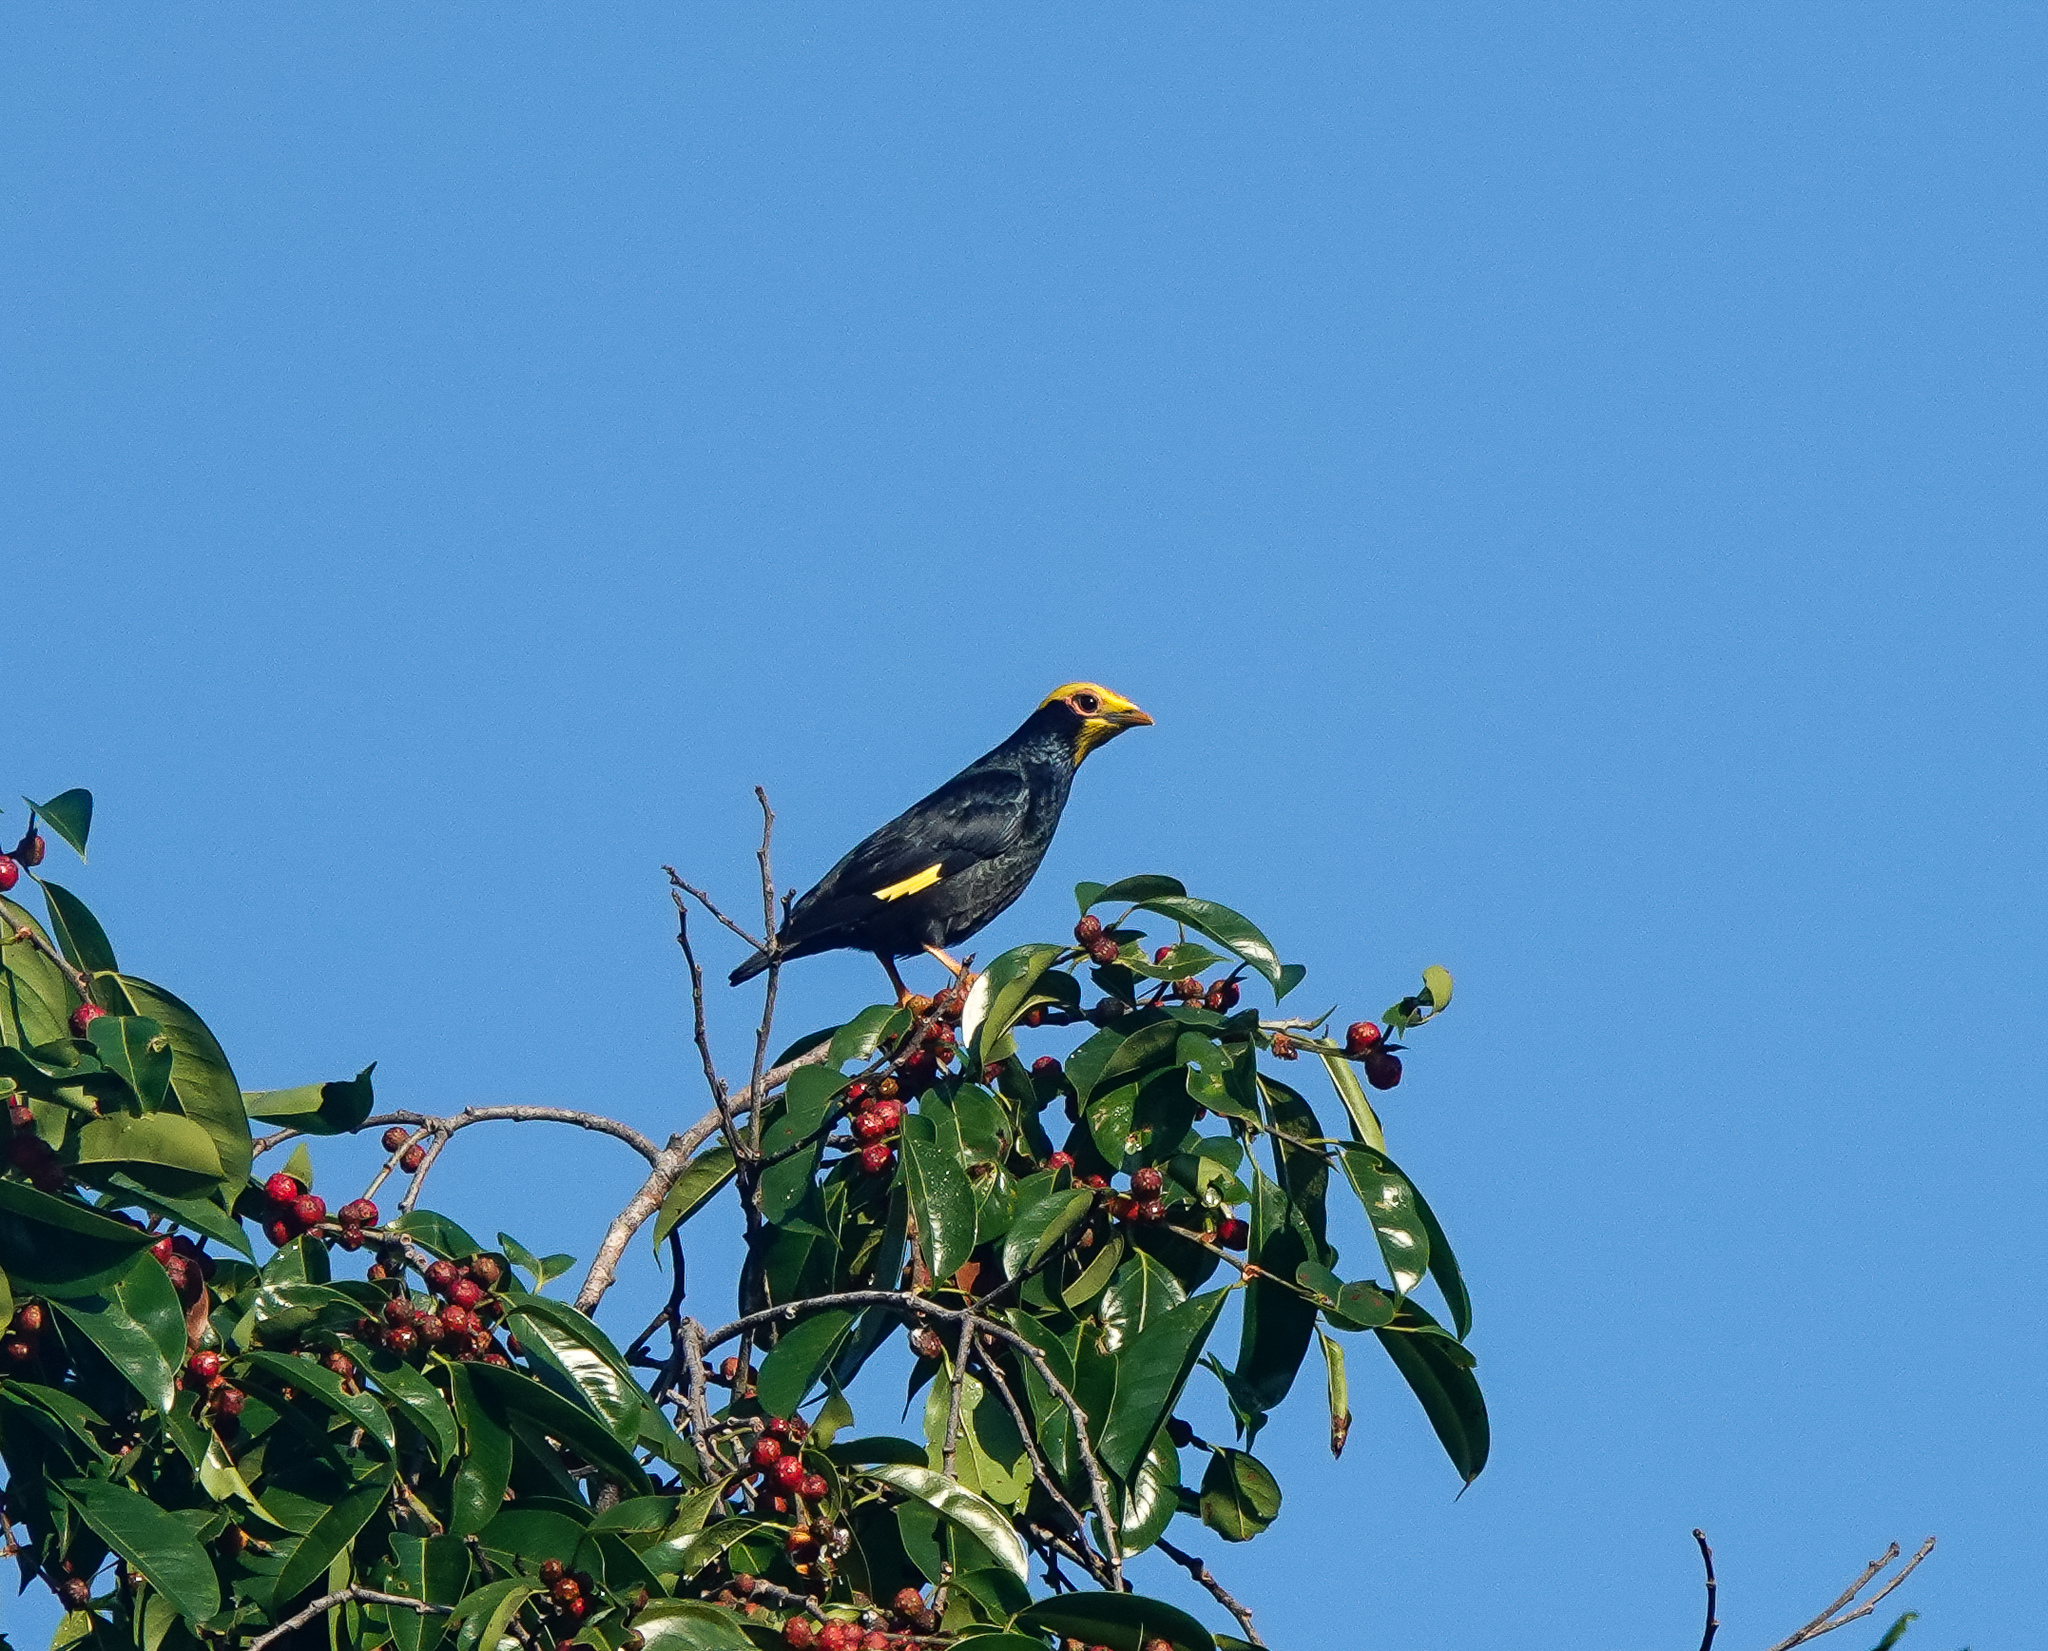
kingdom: Animalia
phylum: Chordata
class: Aves
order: Passeriformes
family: Sturnidae
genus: Ampeliceps
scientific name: Ampeliceps coronatus
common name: Golden-crested myna
